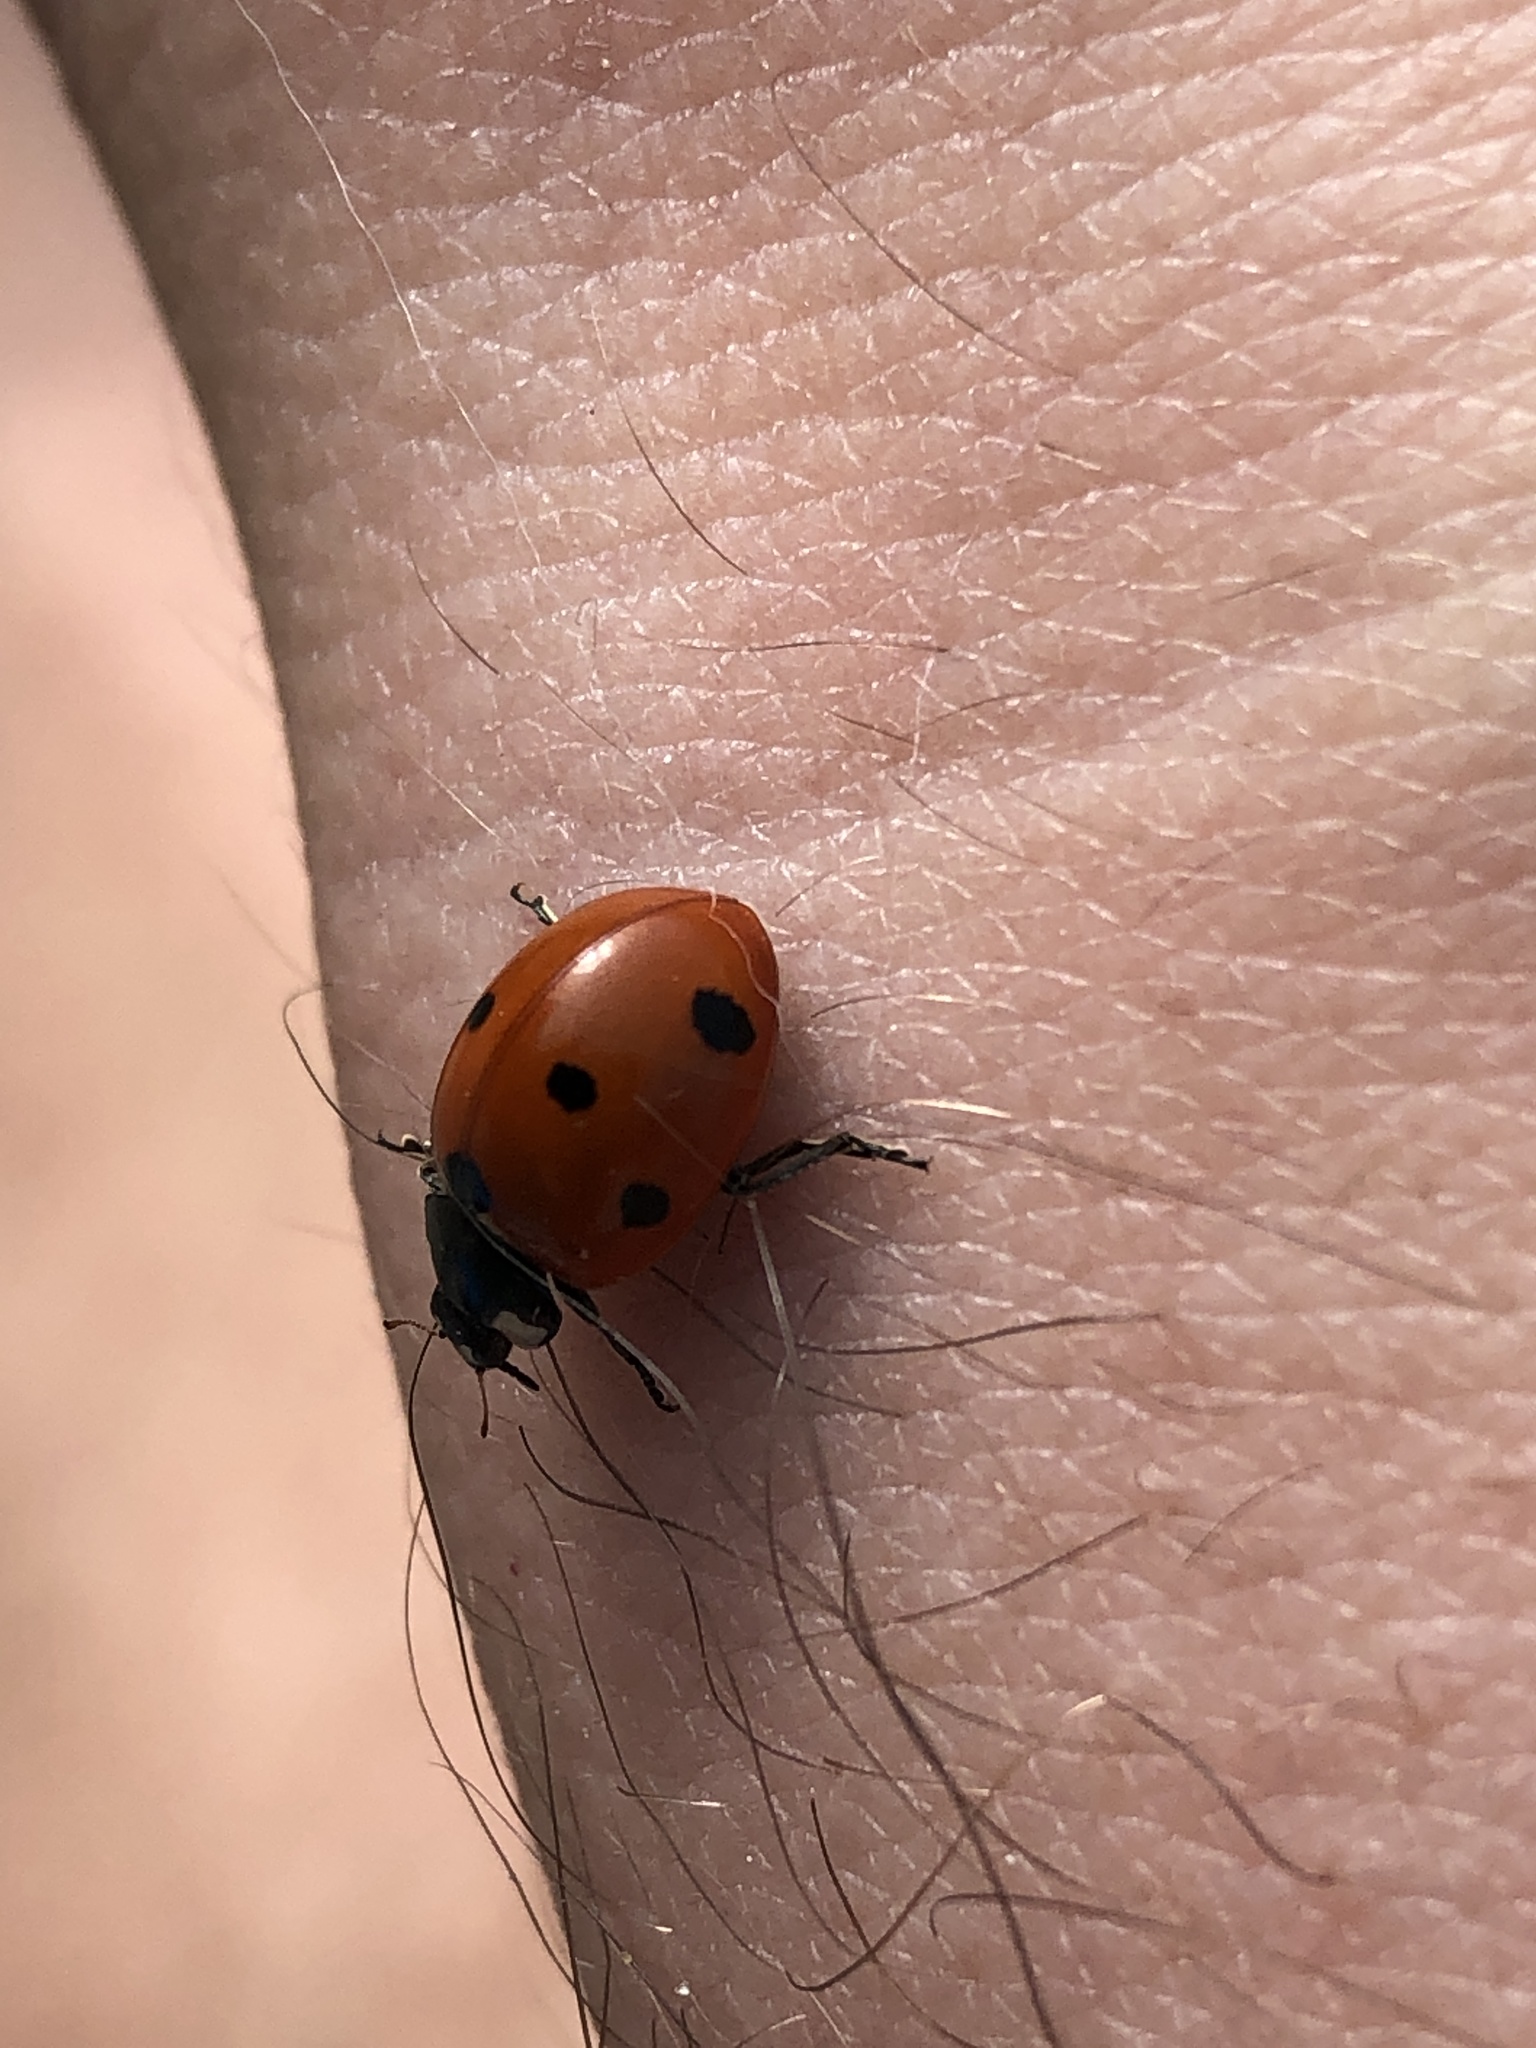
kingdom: Animalia
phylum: Arthropoda
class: Insecta
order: Coleoptera
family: Coccinellidae
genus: Coccinella
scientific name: Coccinella septempunctata
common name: Sevenspotted lady beetle
